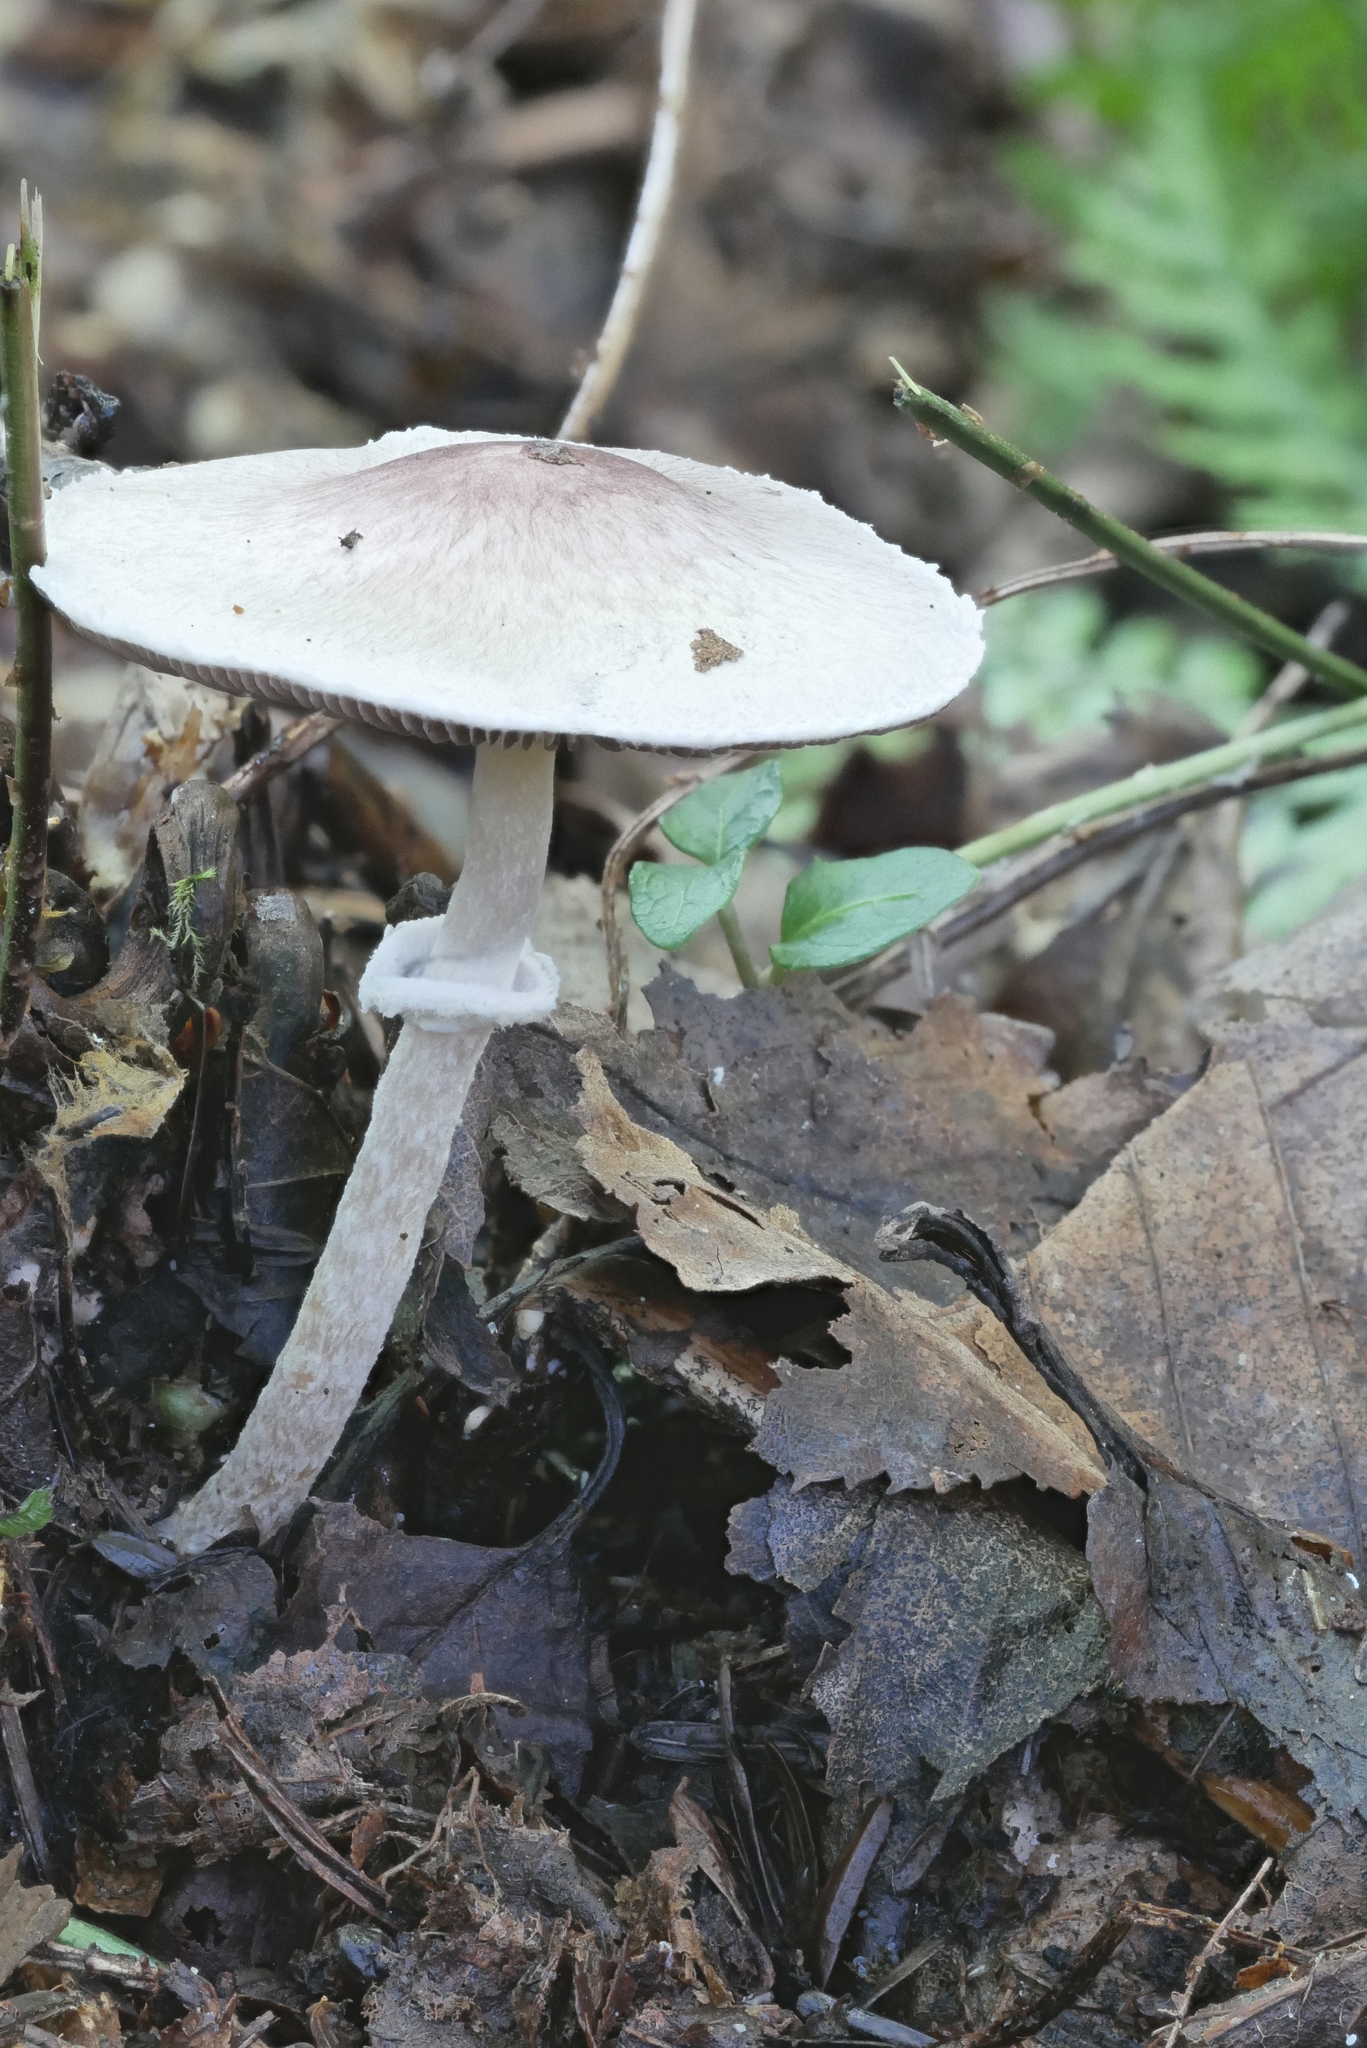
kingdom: Fungi
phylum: Basidiomycota
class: Agaricomycetes
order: Agaricales
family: Agaricaceae
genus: Agaricus
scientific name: Agaricus friesianus
